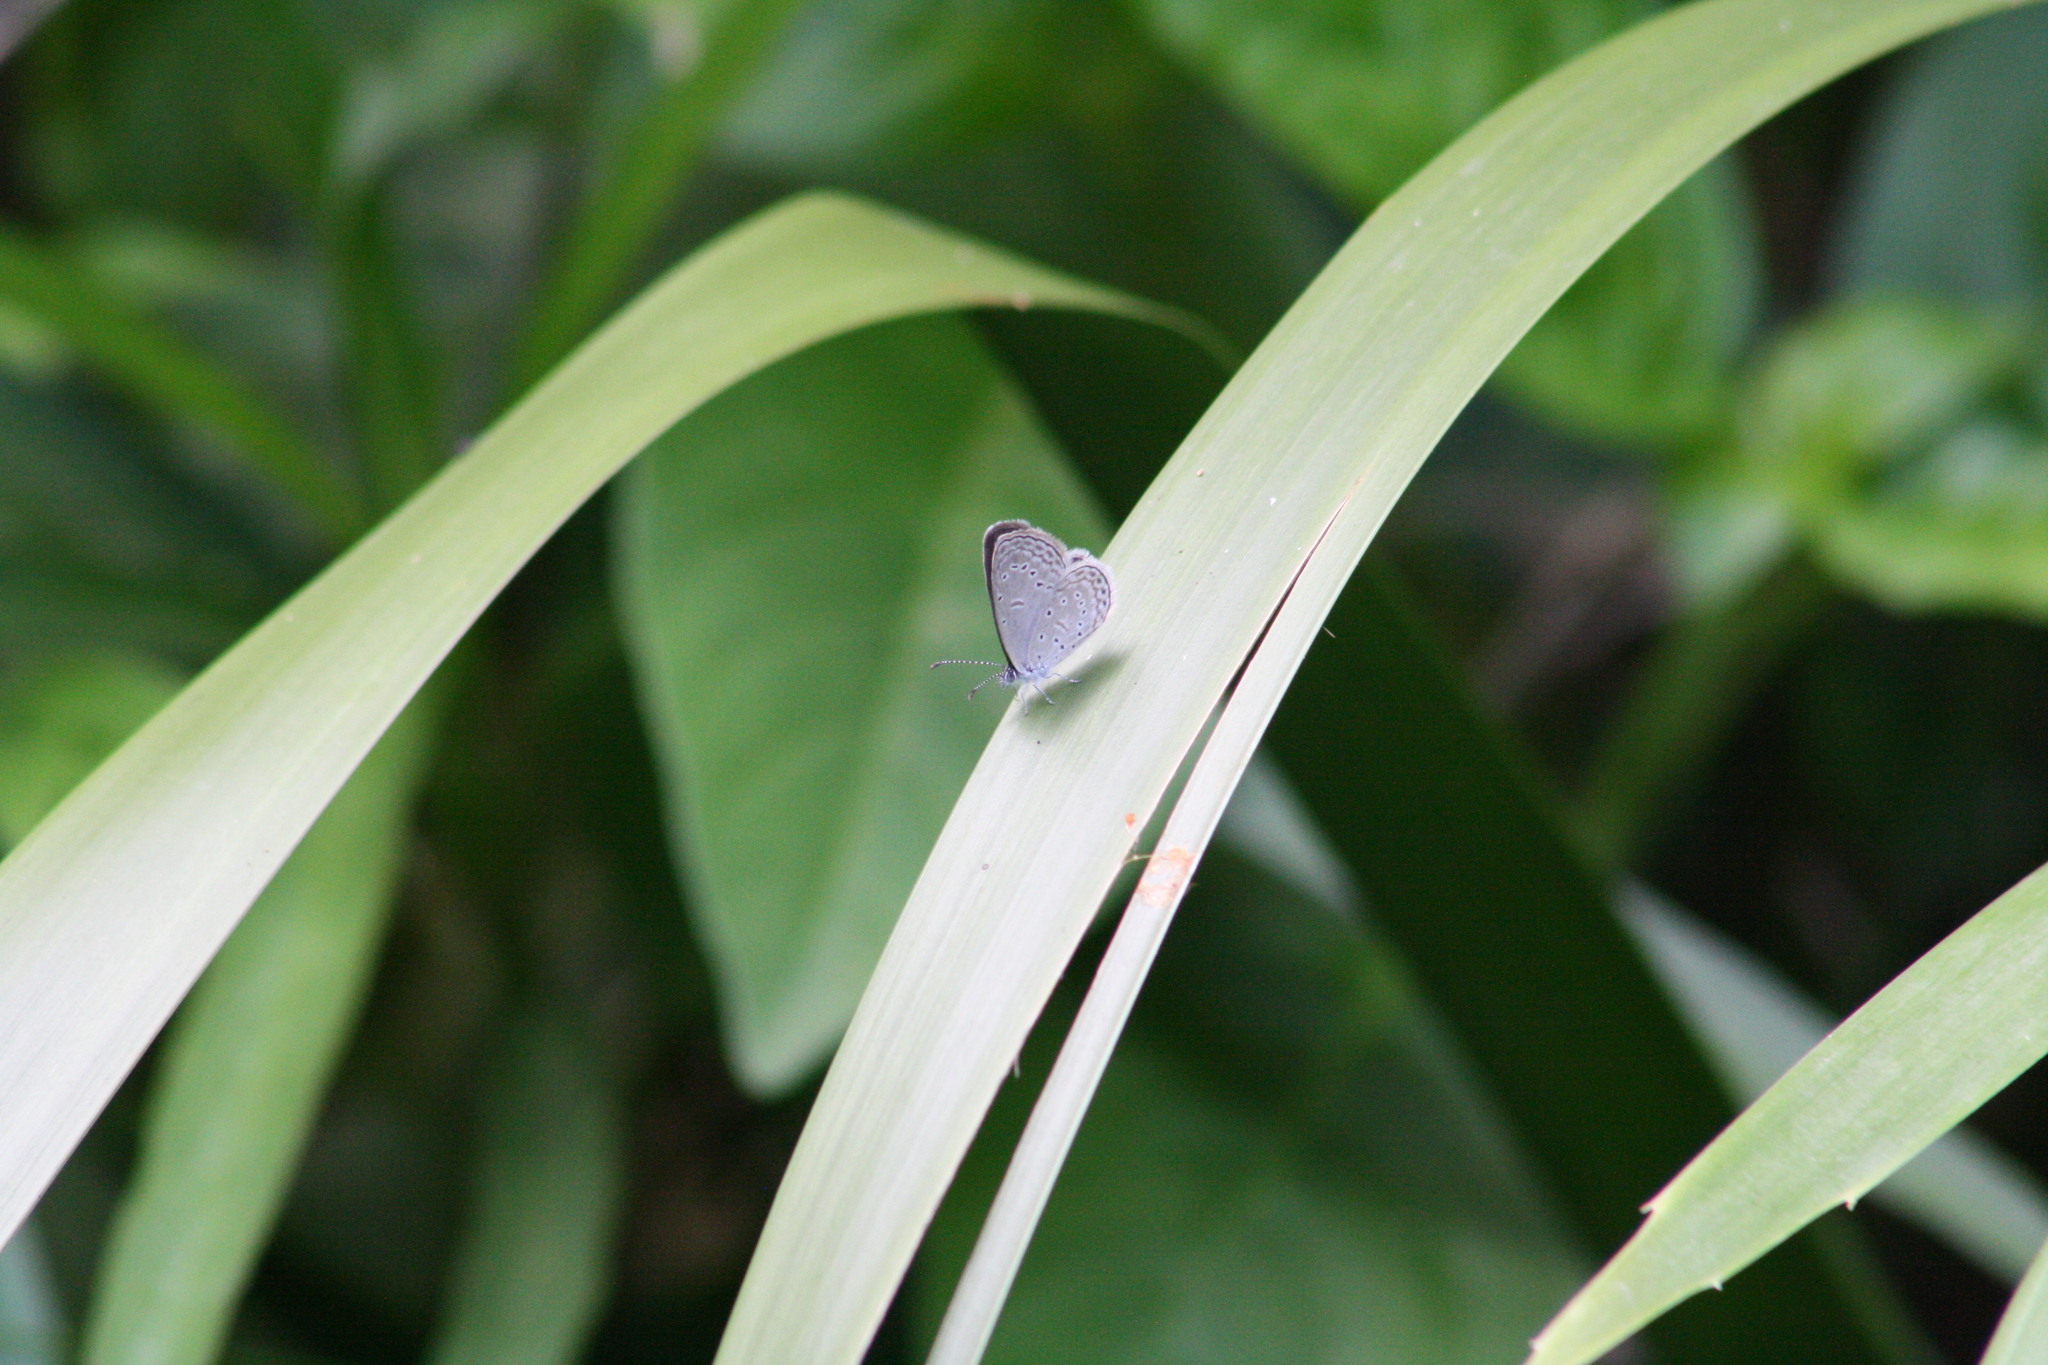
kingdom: Animalia
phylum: Arthropoda
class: Insecta
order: Lepidoptera
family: Lycaenidae
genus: Zizula
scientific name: Zizula hylax
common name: Gaika blue
